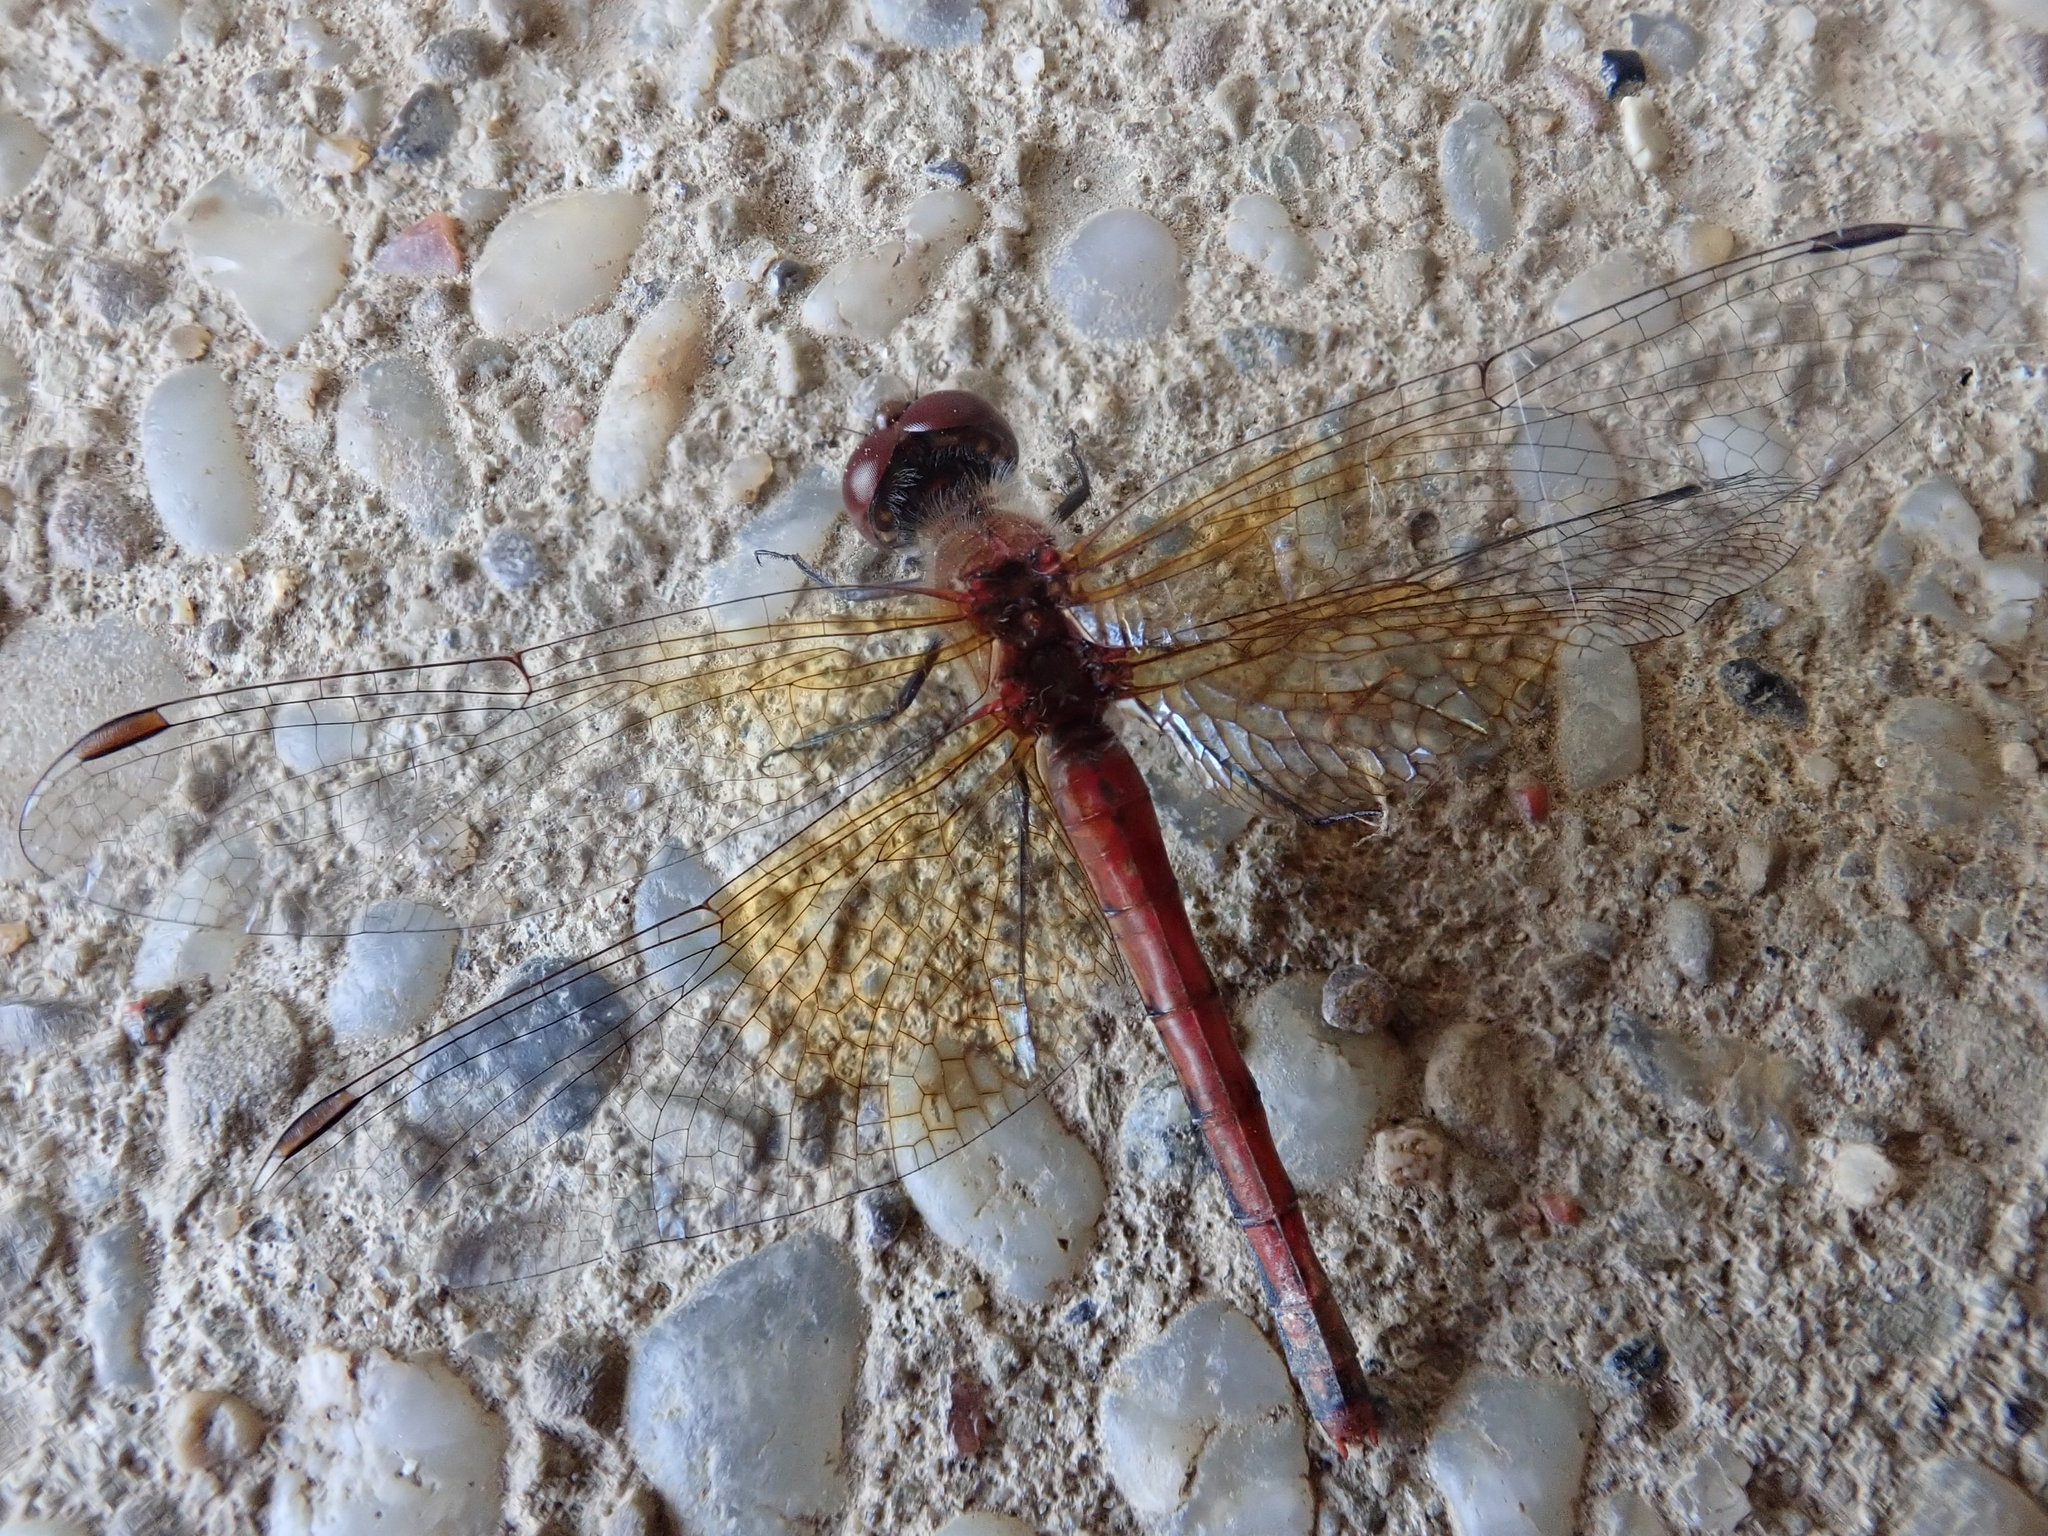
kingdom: Animalia
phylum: Arthropoda
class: Insecta
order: Odonata
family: Libellulidae
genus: Sympetrum
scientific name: Sympetrum semicinctum
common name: Band-winged meadowhawk
